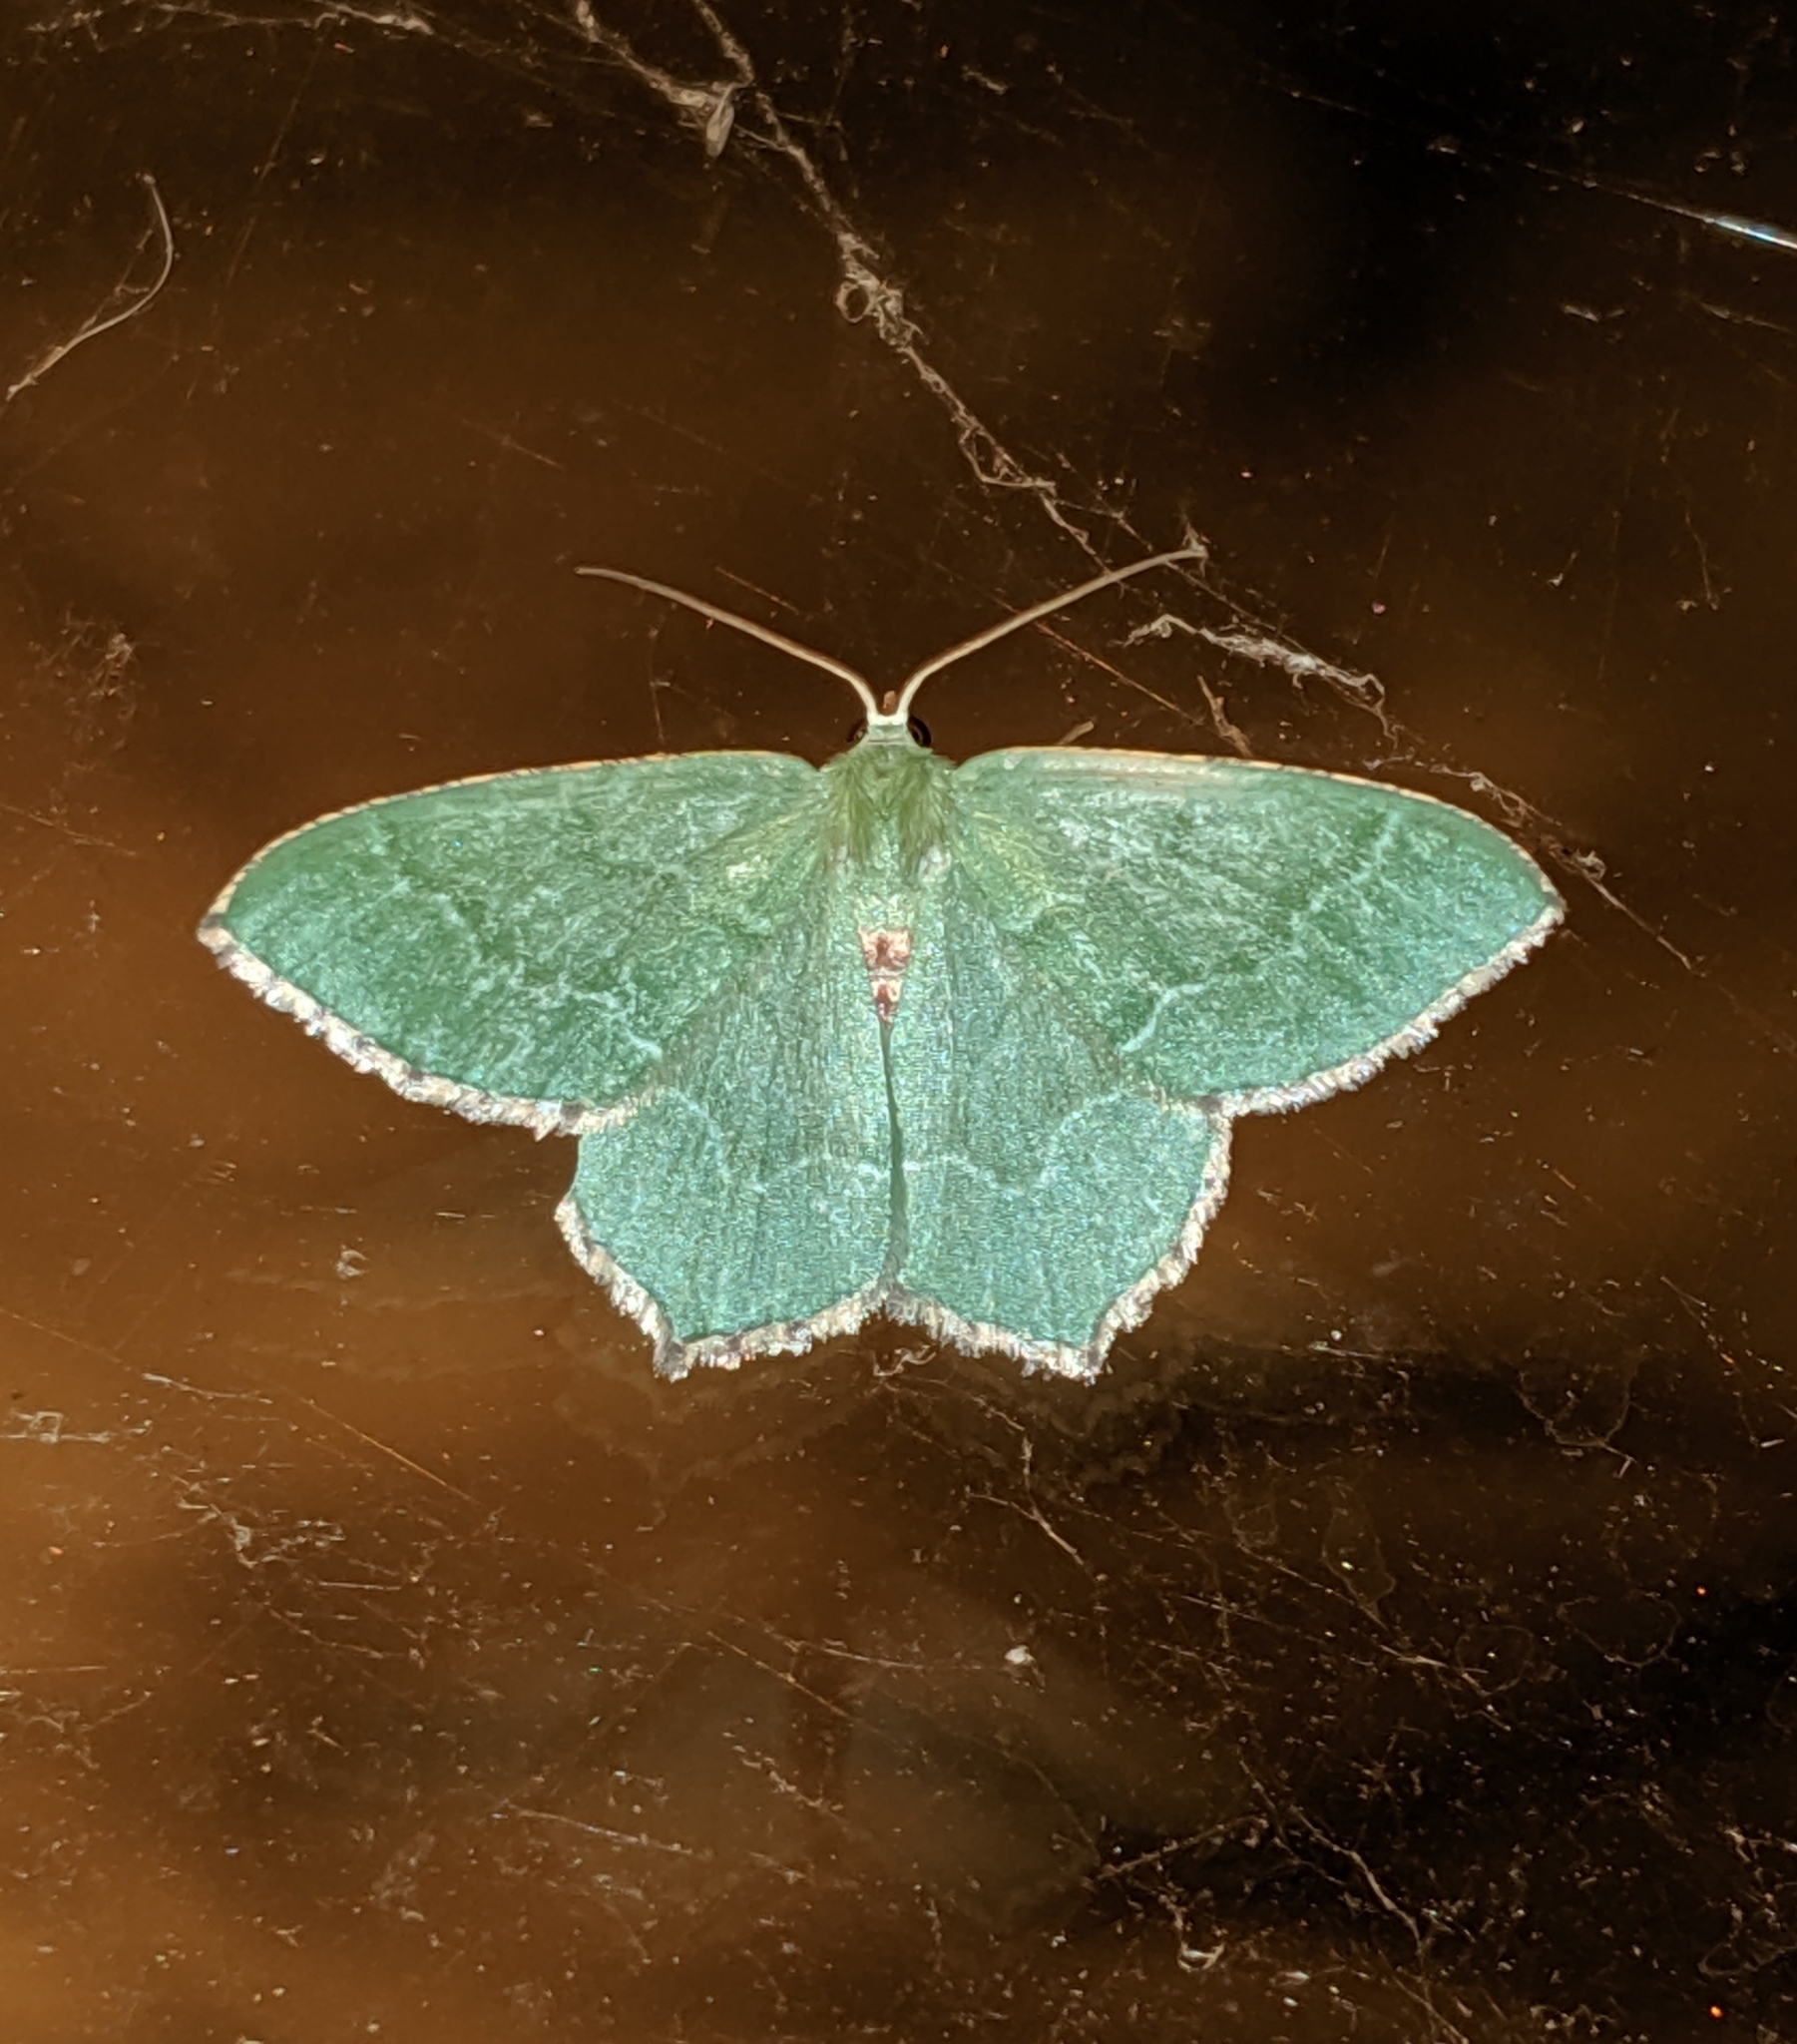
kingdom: Animalia
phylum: Arthropoda
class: Insecta
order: Lepidoptera
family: Geometridae
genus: Hemithea
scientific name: Hemithea aestivaria
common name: Common emerald
